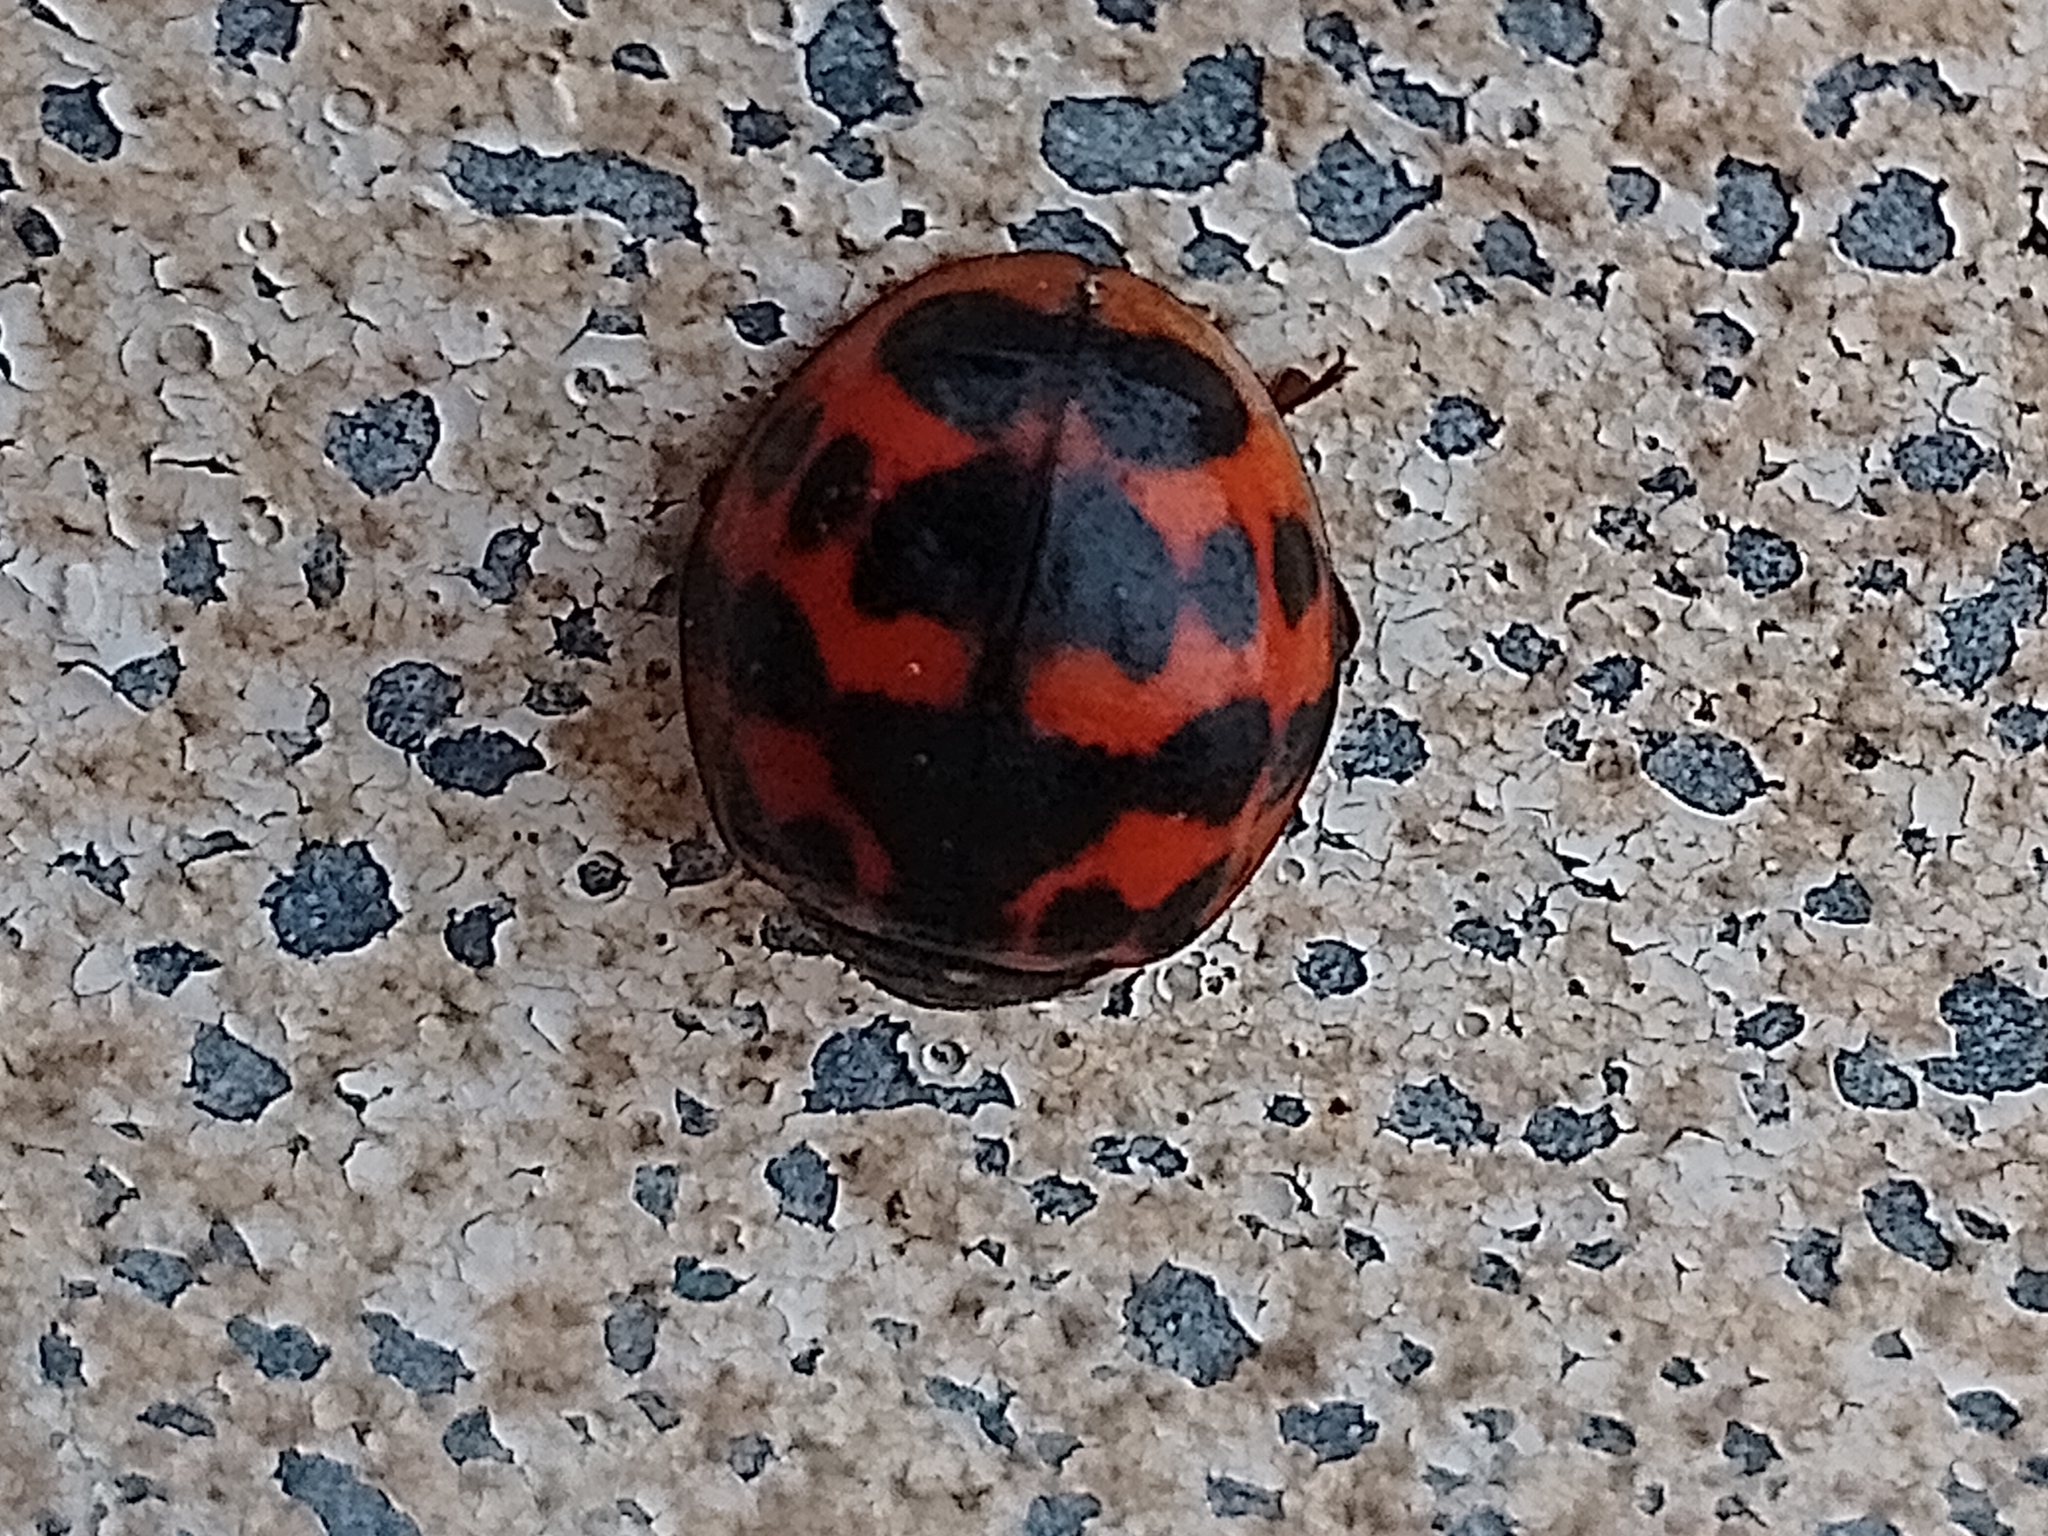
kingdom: Animalia
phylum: Arthropoda
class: Insecta
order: Coleoptera
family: Coccinellidae
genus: Harmonia
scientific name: Harmonia axyridis
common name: Harlequin ladybird
